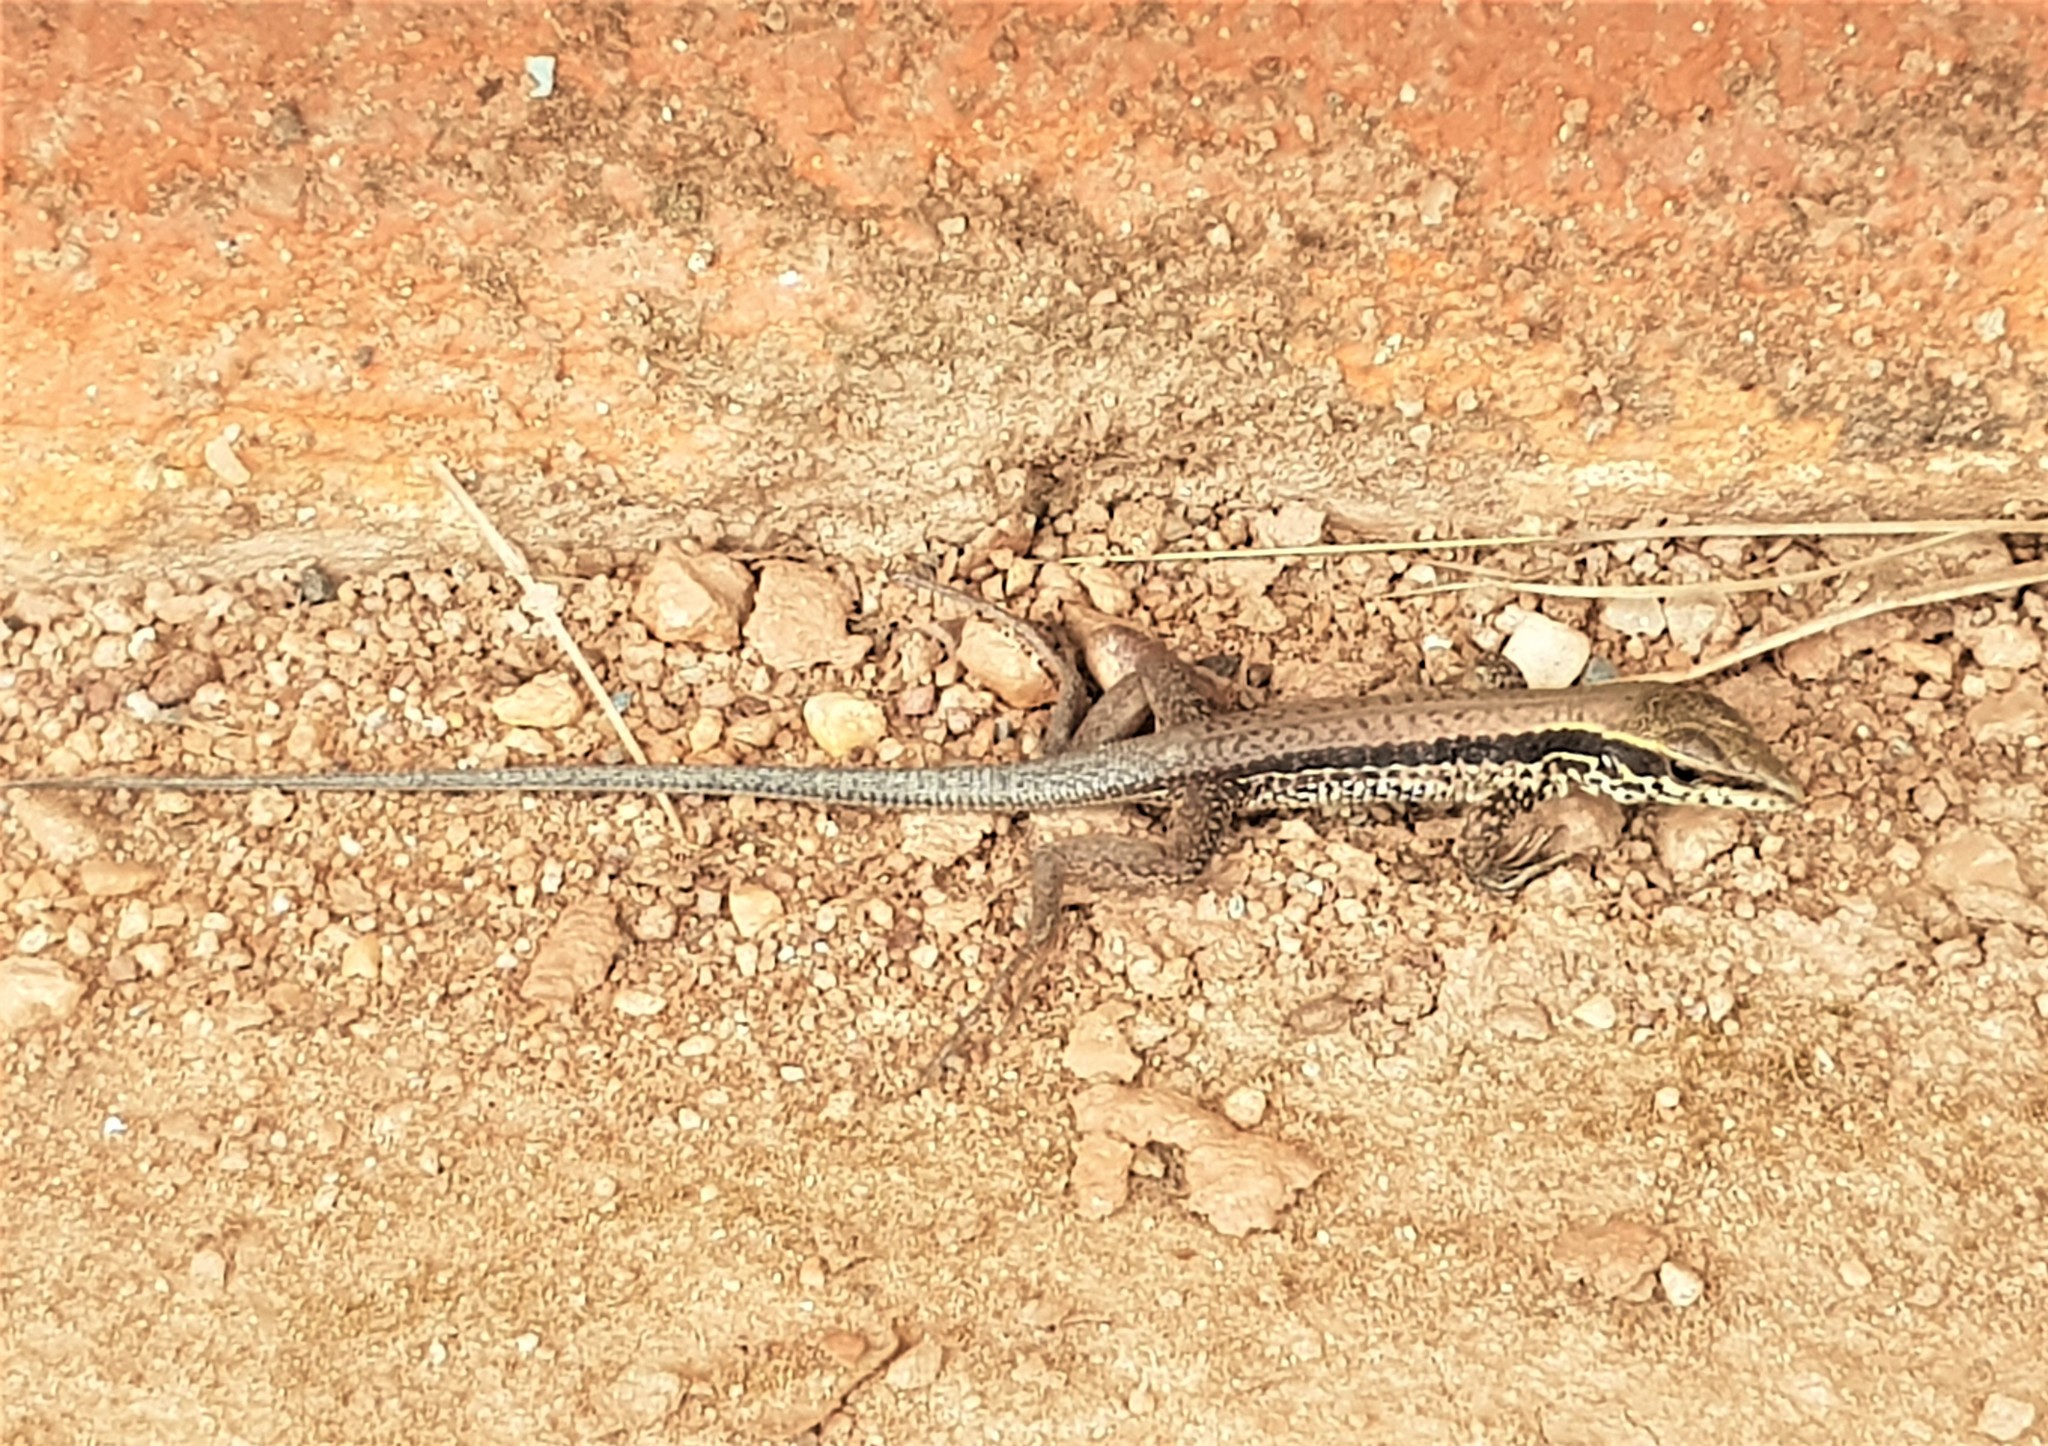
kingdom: Animalia
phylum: Chordata
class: Squamata
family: Teiidae
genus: Ameiva
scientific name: Ameiva ameiva
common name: Giant ameiva
